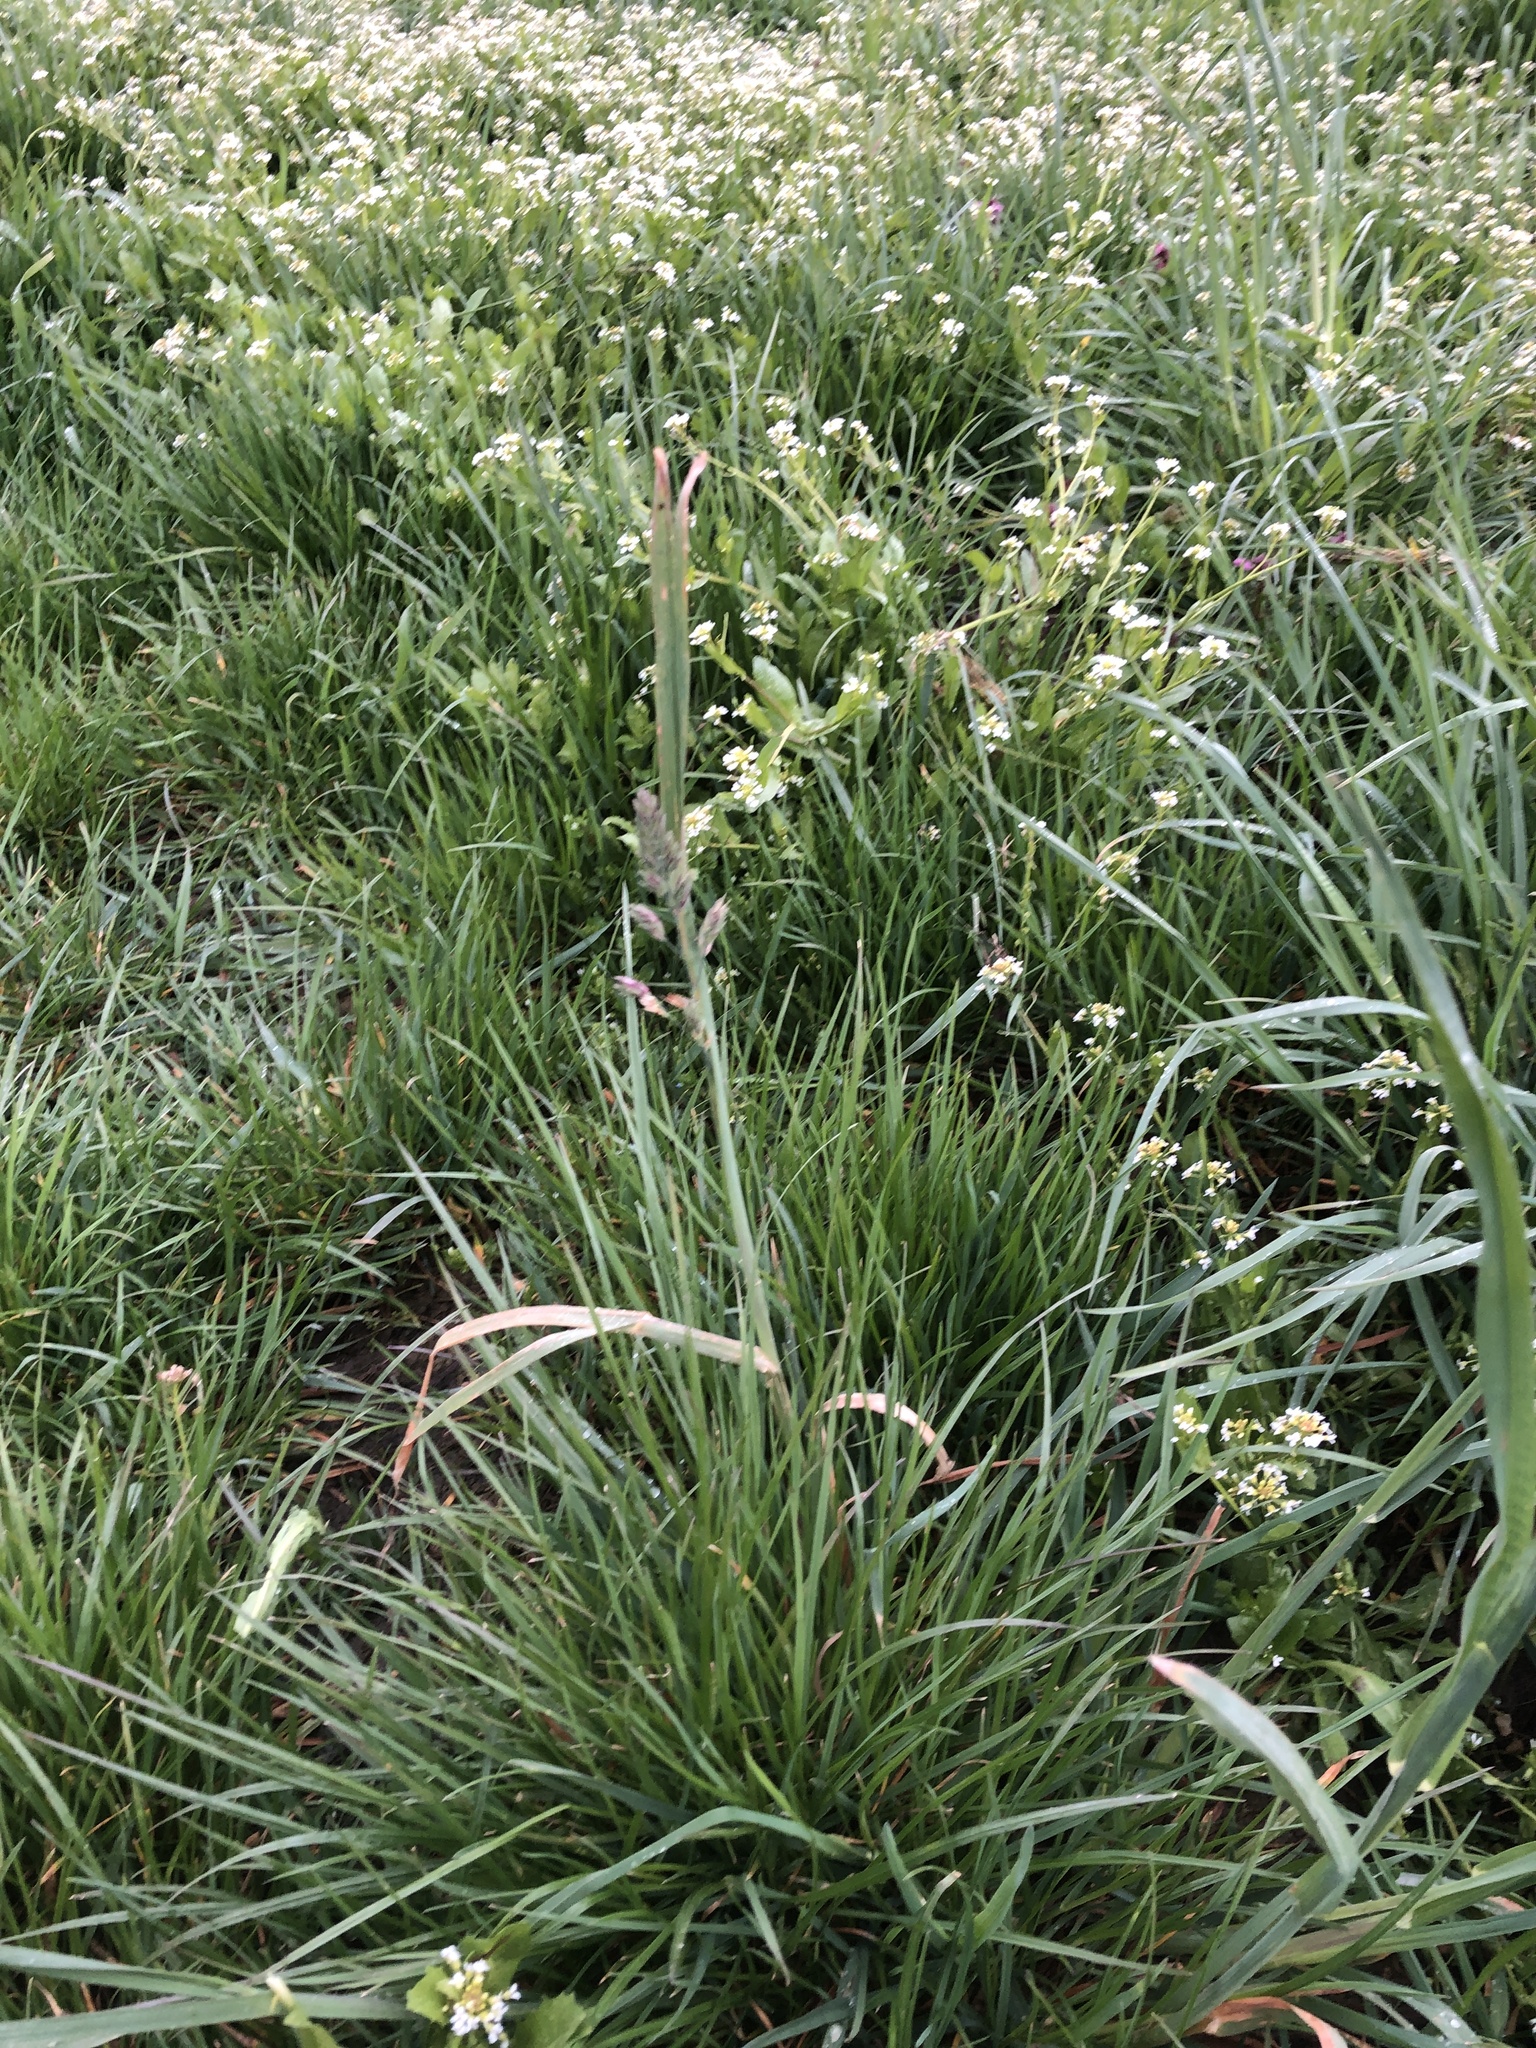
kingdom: Plantae
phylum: Tracheophyta
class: Liliopsida
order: Poales
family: Poaceae
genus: Dactylis
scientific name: Dactylis glomerata
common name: Orchardgrass
